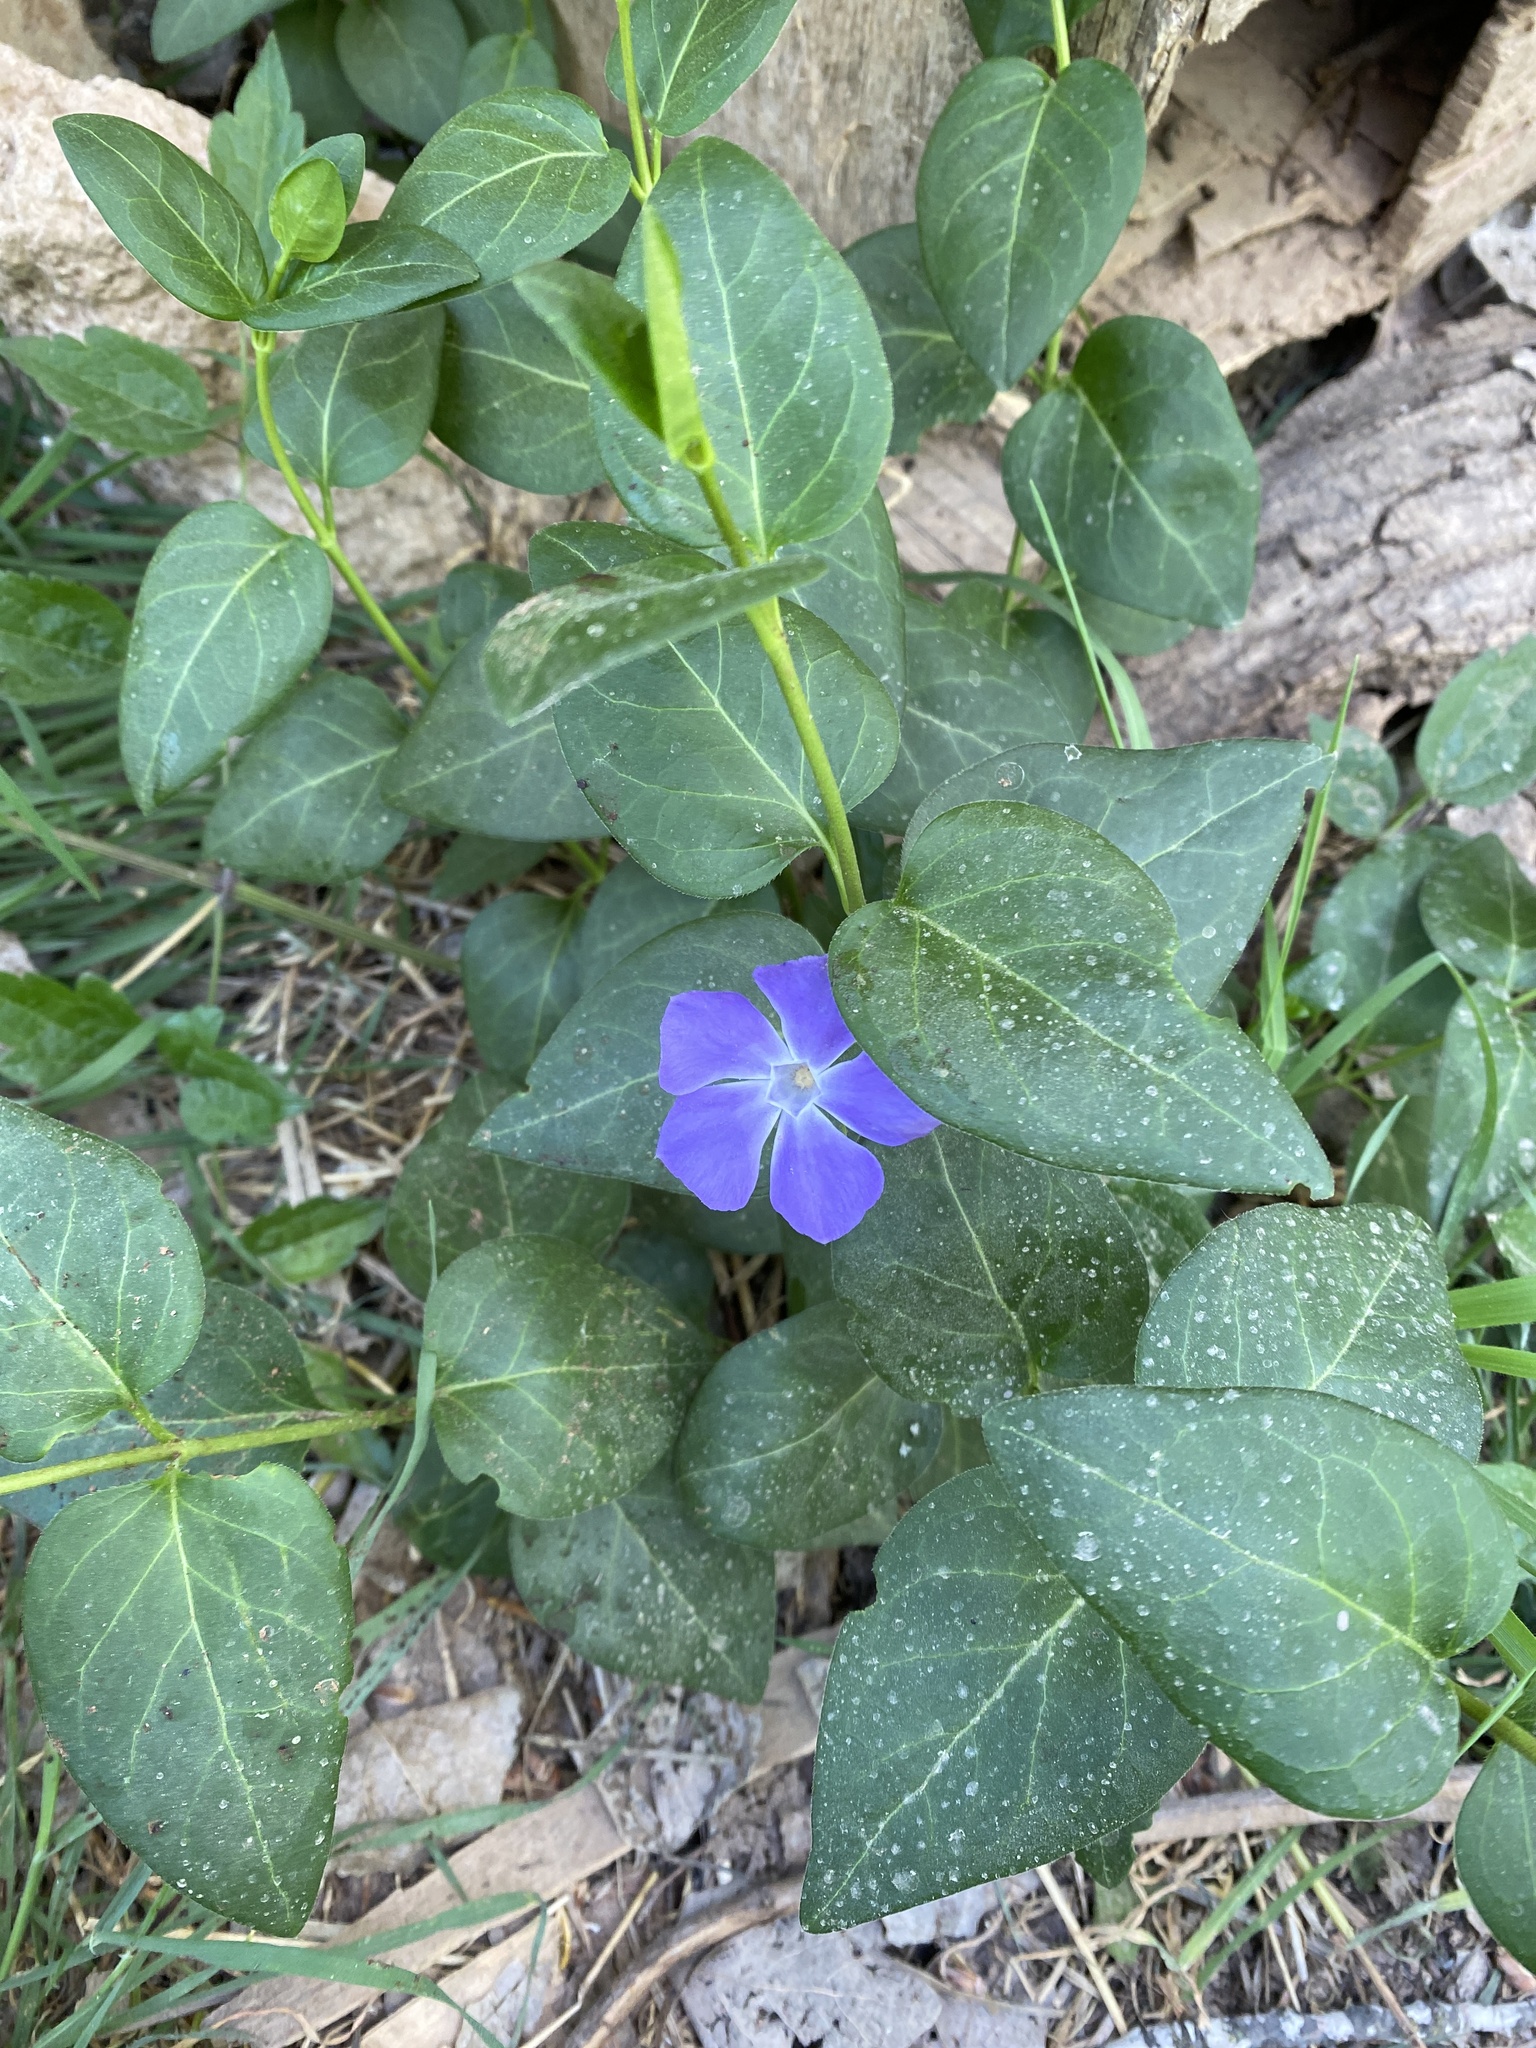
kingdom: Plantae
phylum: Tracheophyta
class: Magnoliopsida
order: Gentianales
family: Apocynaceae
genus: Vinca
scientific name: Vinca major
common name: Greater periwinkle
